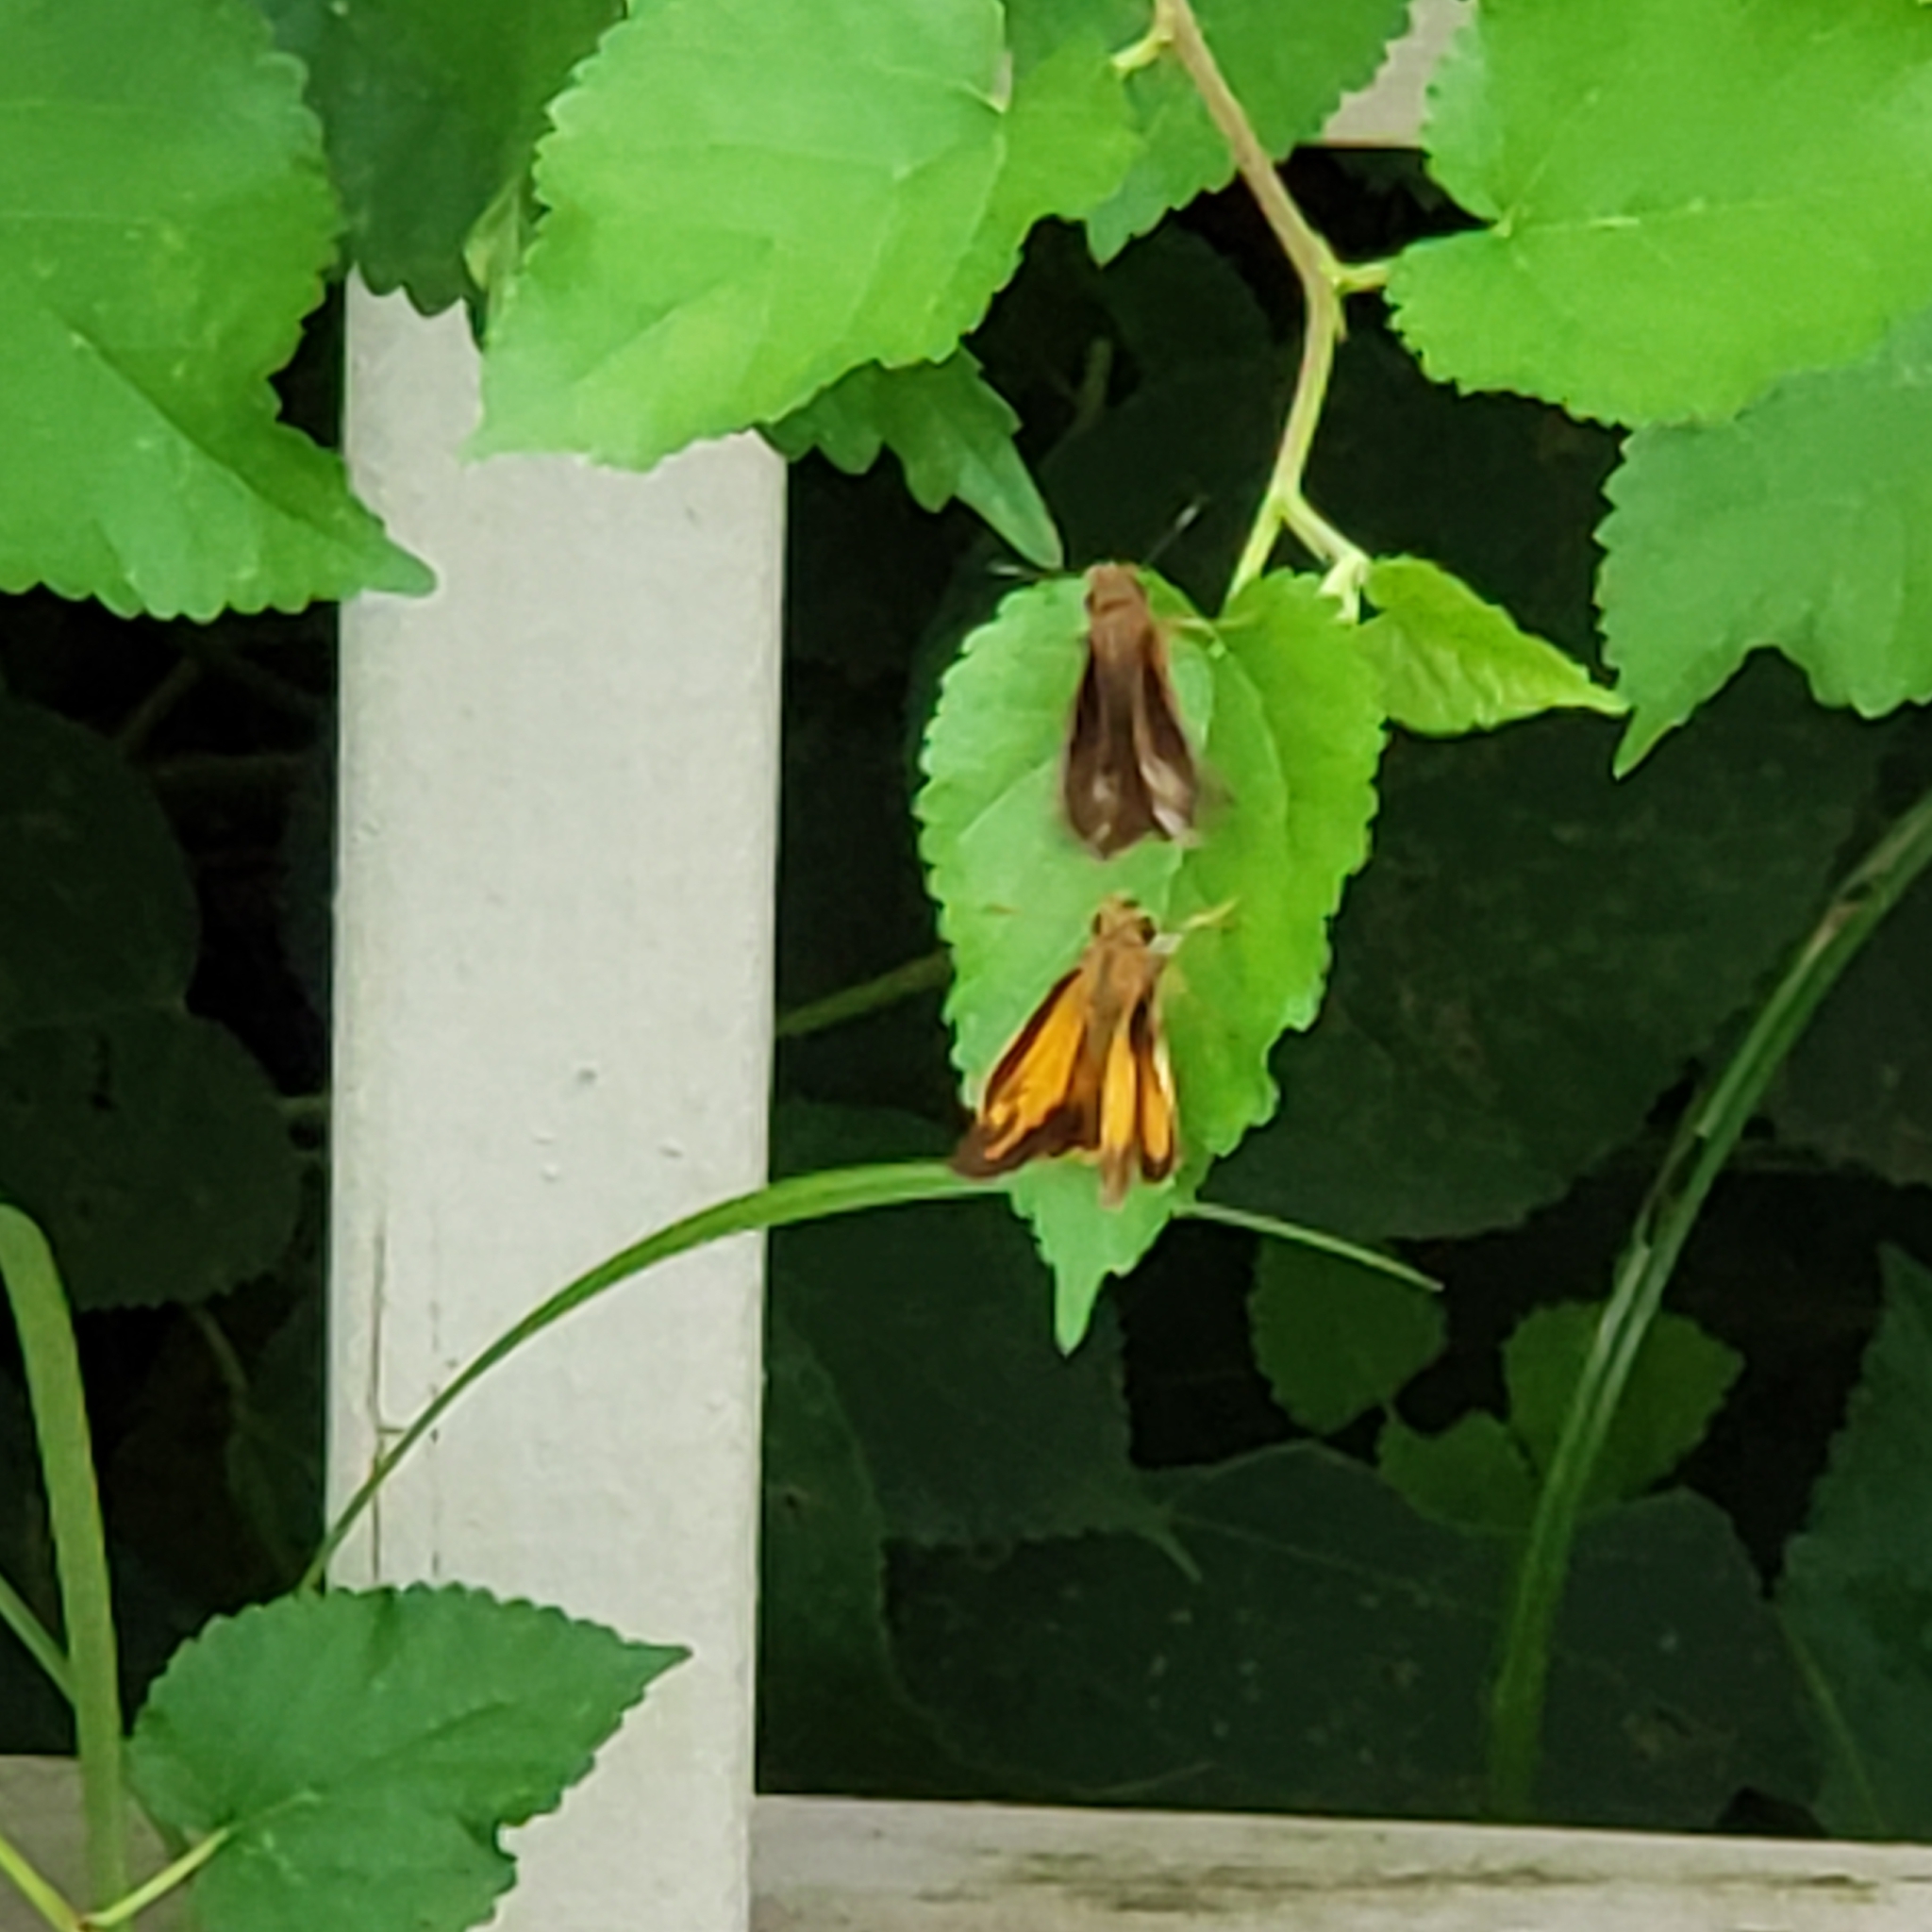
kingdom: Animalia
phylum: Arthropoda
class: Insecta
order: Lepidoptera
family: Hesperiidae
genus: Lon
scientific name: Lon zabulon
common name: Zabulon skipper
